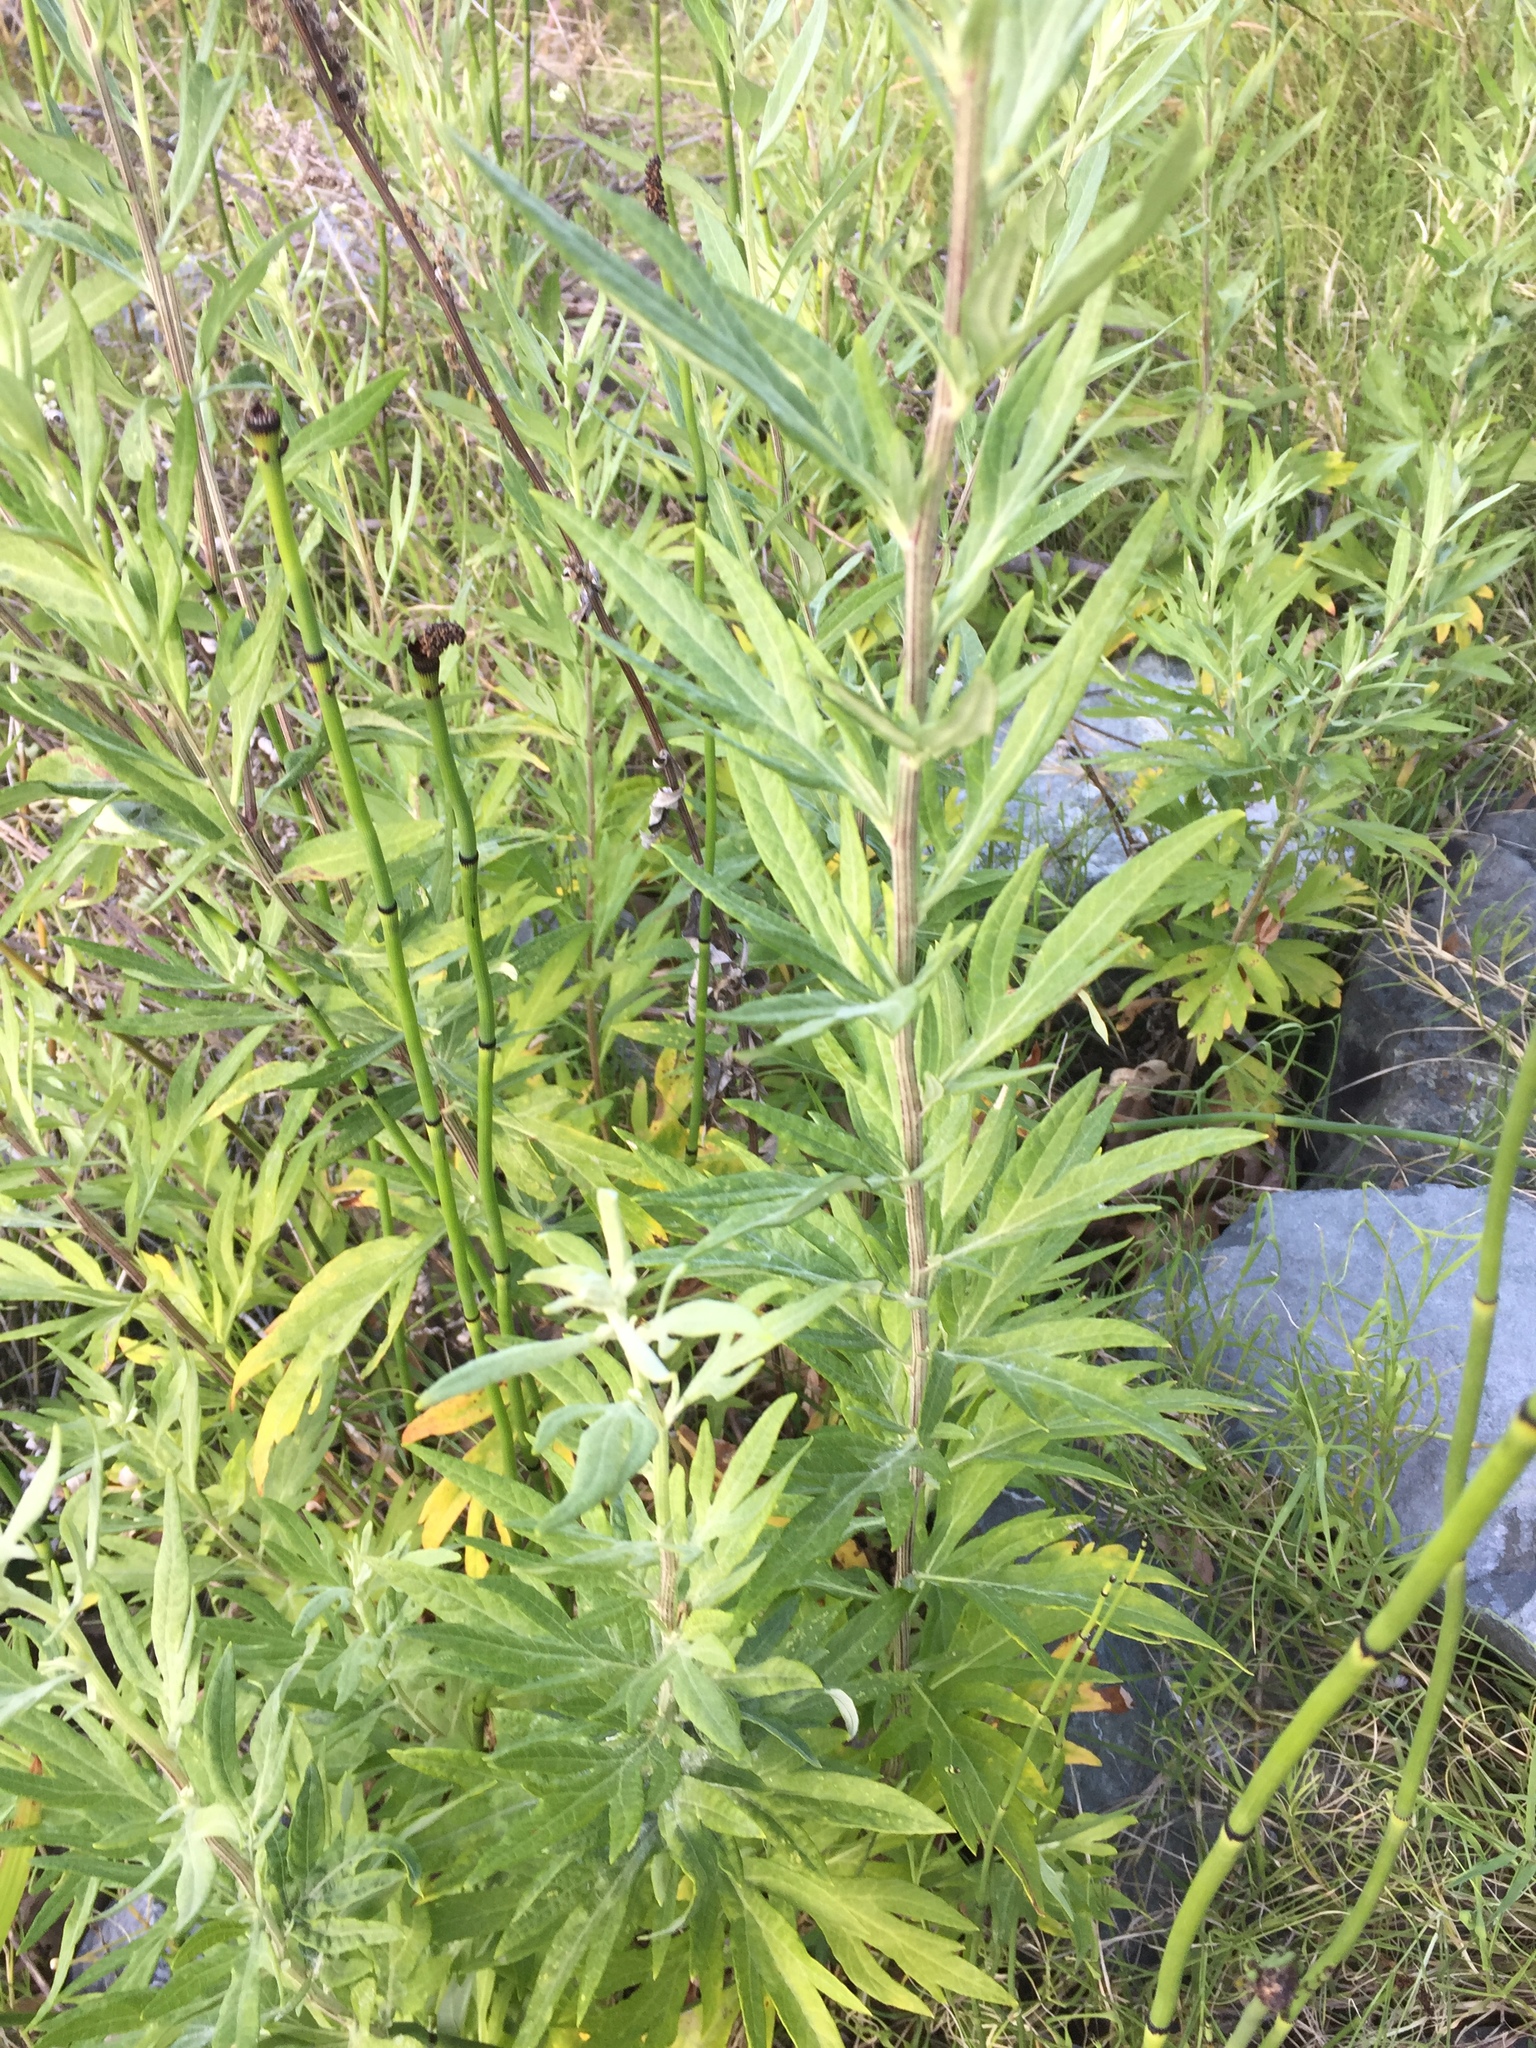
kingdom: Plantae
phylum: Tracheophyta
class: Magnoliopsida
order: Asterales
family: Asteraceae
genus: Artemisia
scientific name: Artemisia douglasiana
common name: Northwest mugwort
